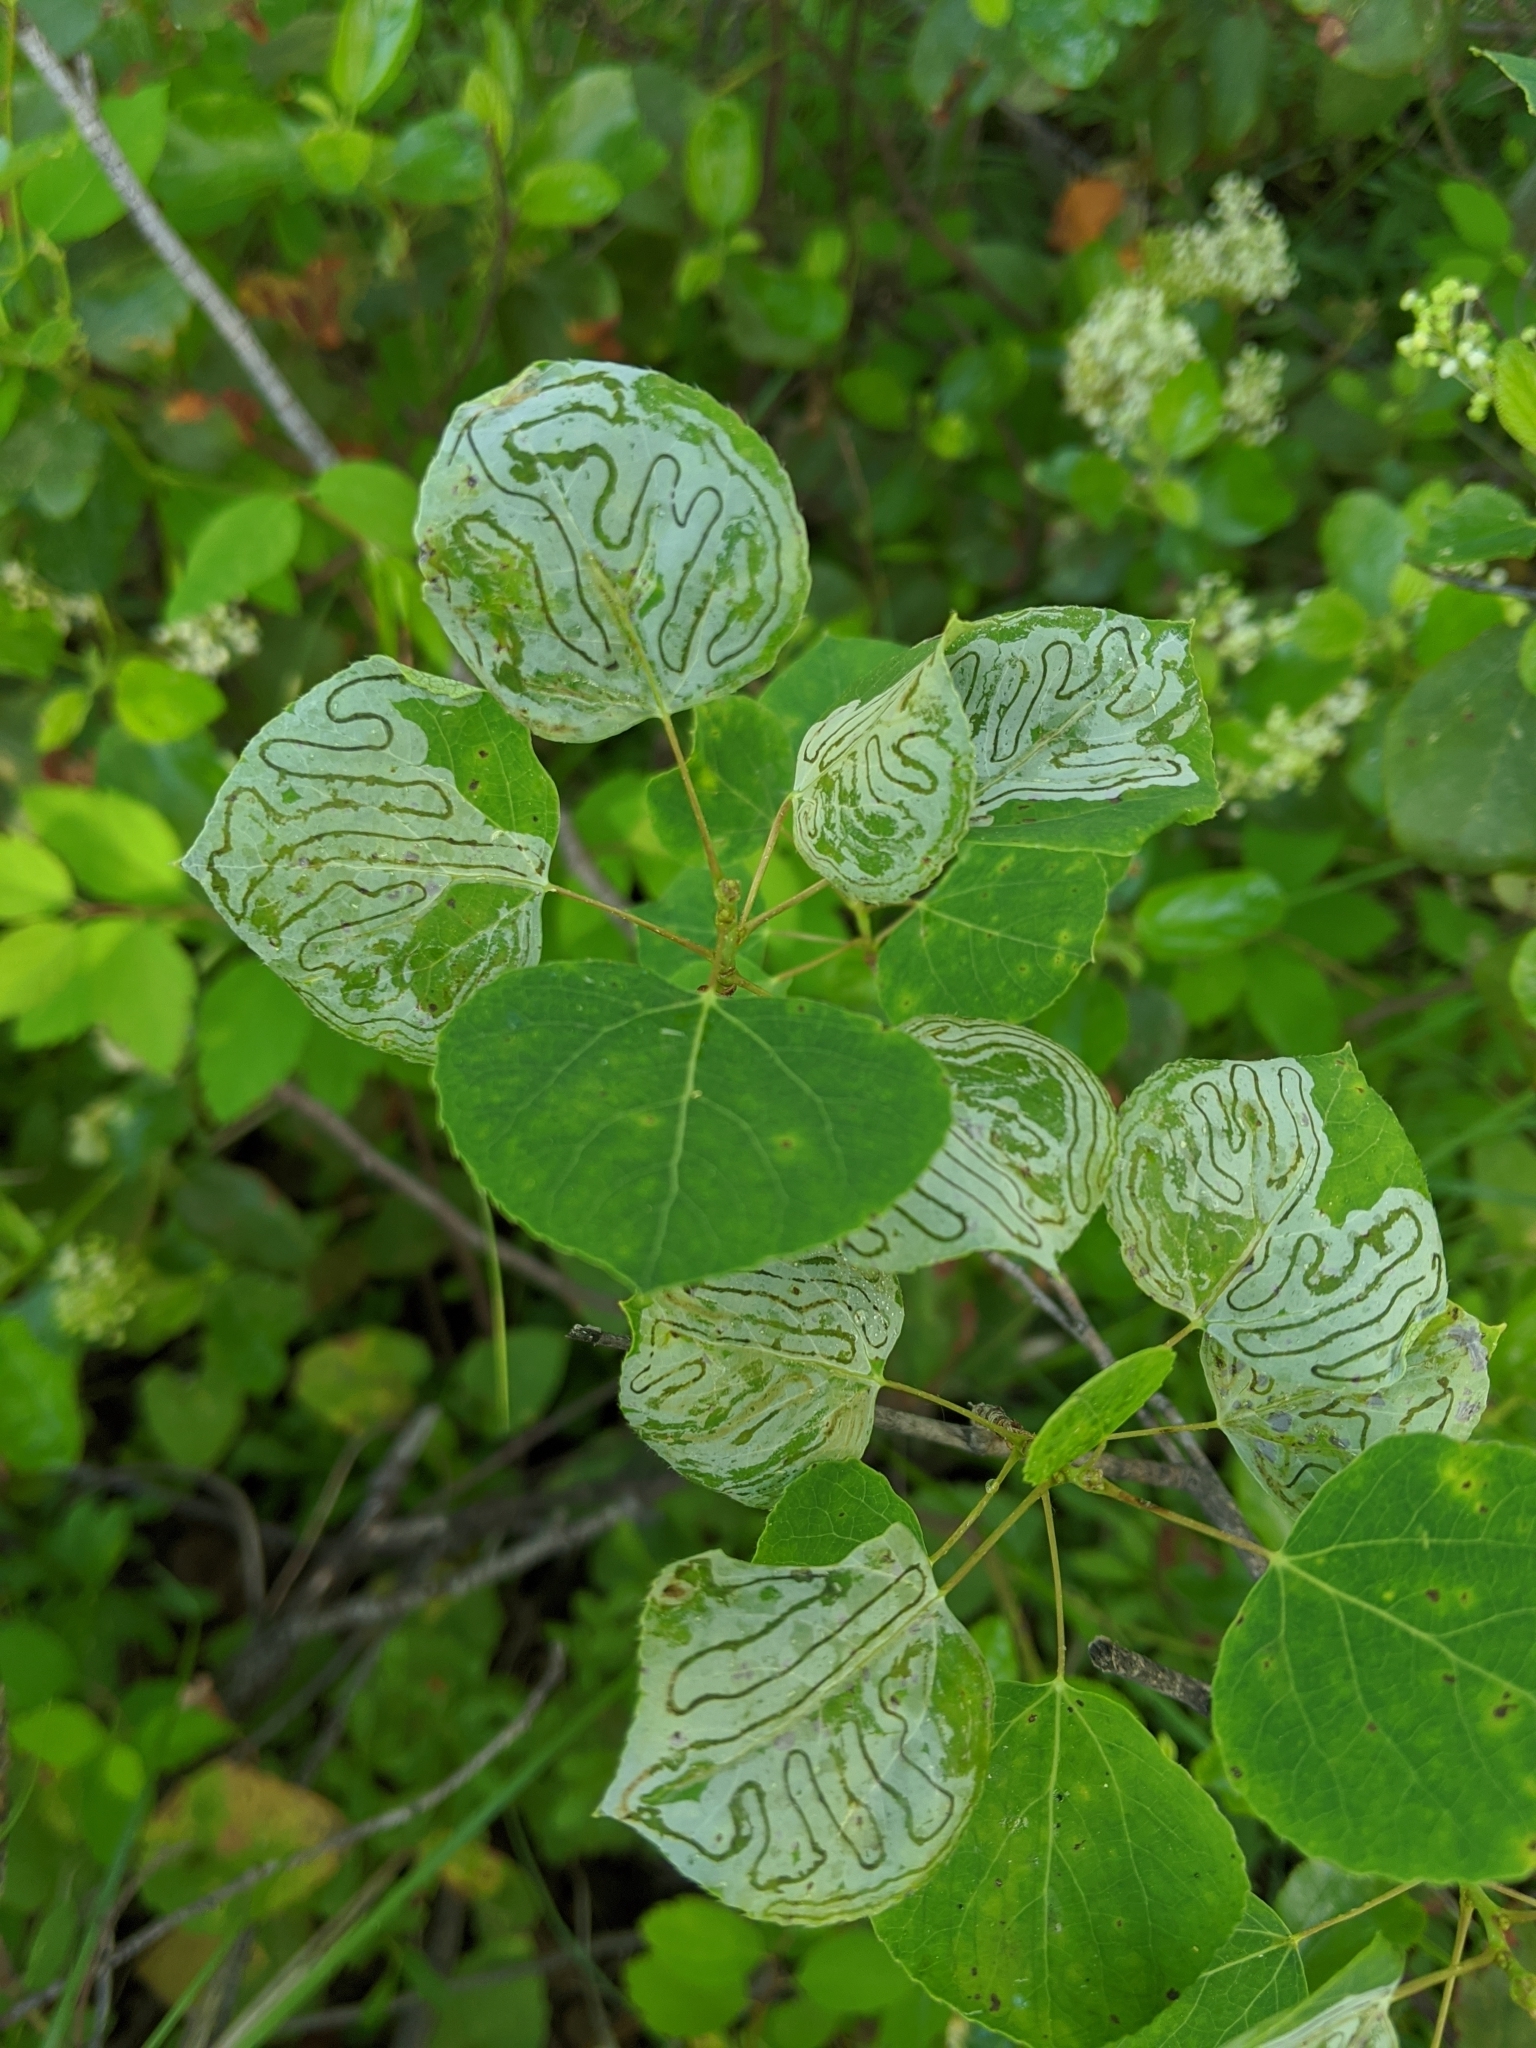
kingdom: Animalia
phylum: Arthropoda
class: Insecta
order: Lepidoptera
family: Gracillariidae
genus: Phyllocnistis
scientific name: Phyllocnistis populiella
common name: Aspen serpentine leafminer moth
